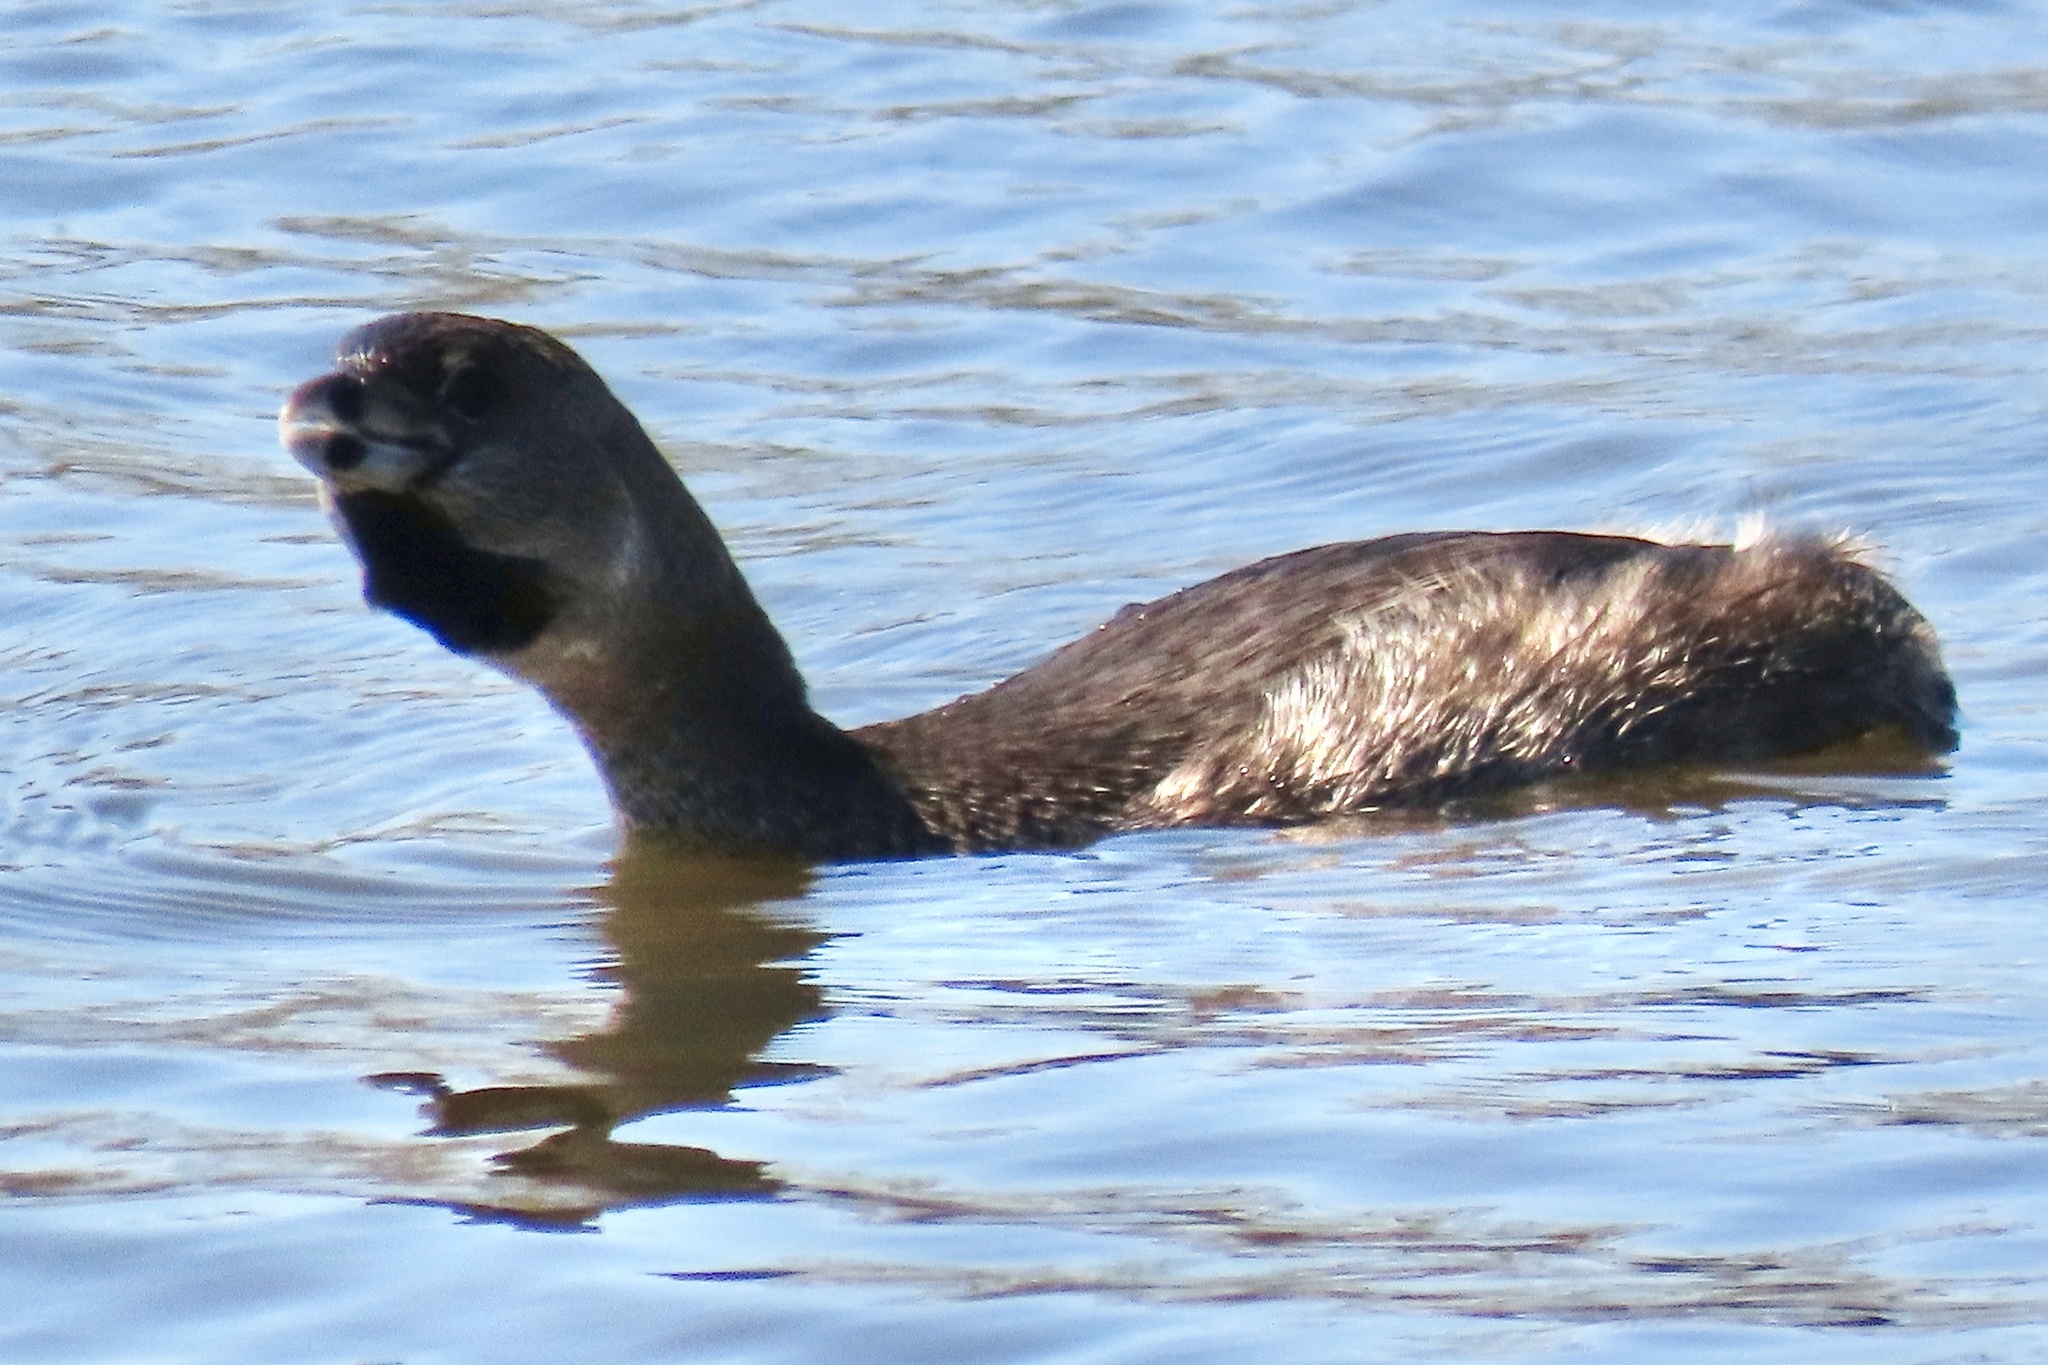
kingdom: Animalia
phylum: Chordata
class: Aves
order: Podicipediformes
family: Podicipedidae
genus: Podilymbus
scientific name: Podilymbus podiceps
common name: Pied-billed grebe
